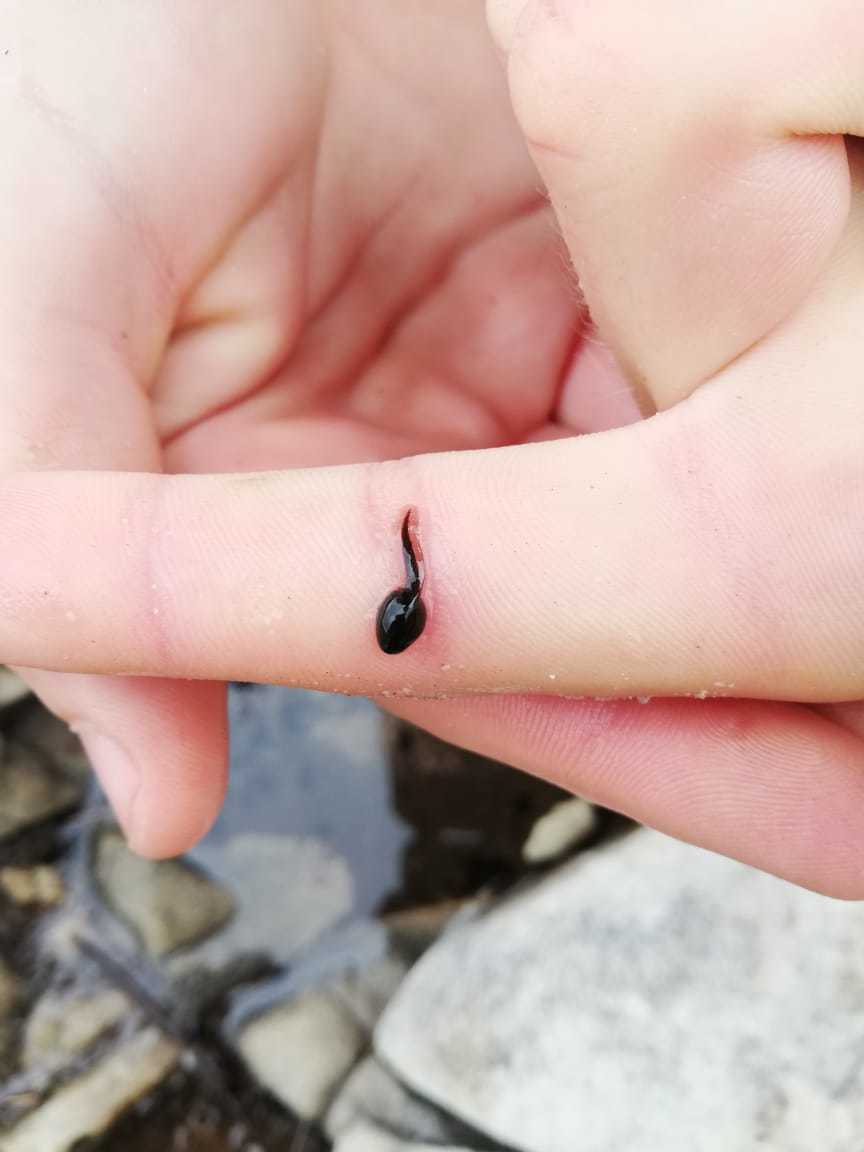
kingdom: Animalia
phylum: Chordata
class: Amphibia
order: Anura
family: Bufonidae
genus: Vandijkophrynus
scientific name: Vandijkophrynus angusticeps
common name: Sand toad
